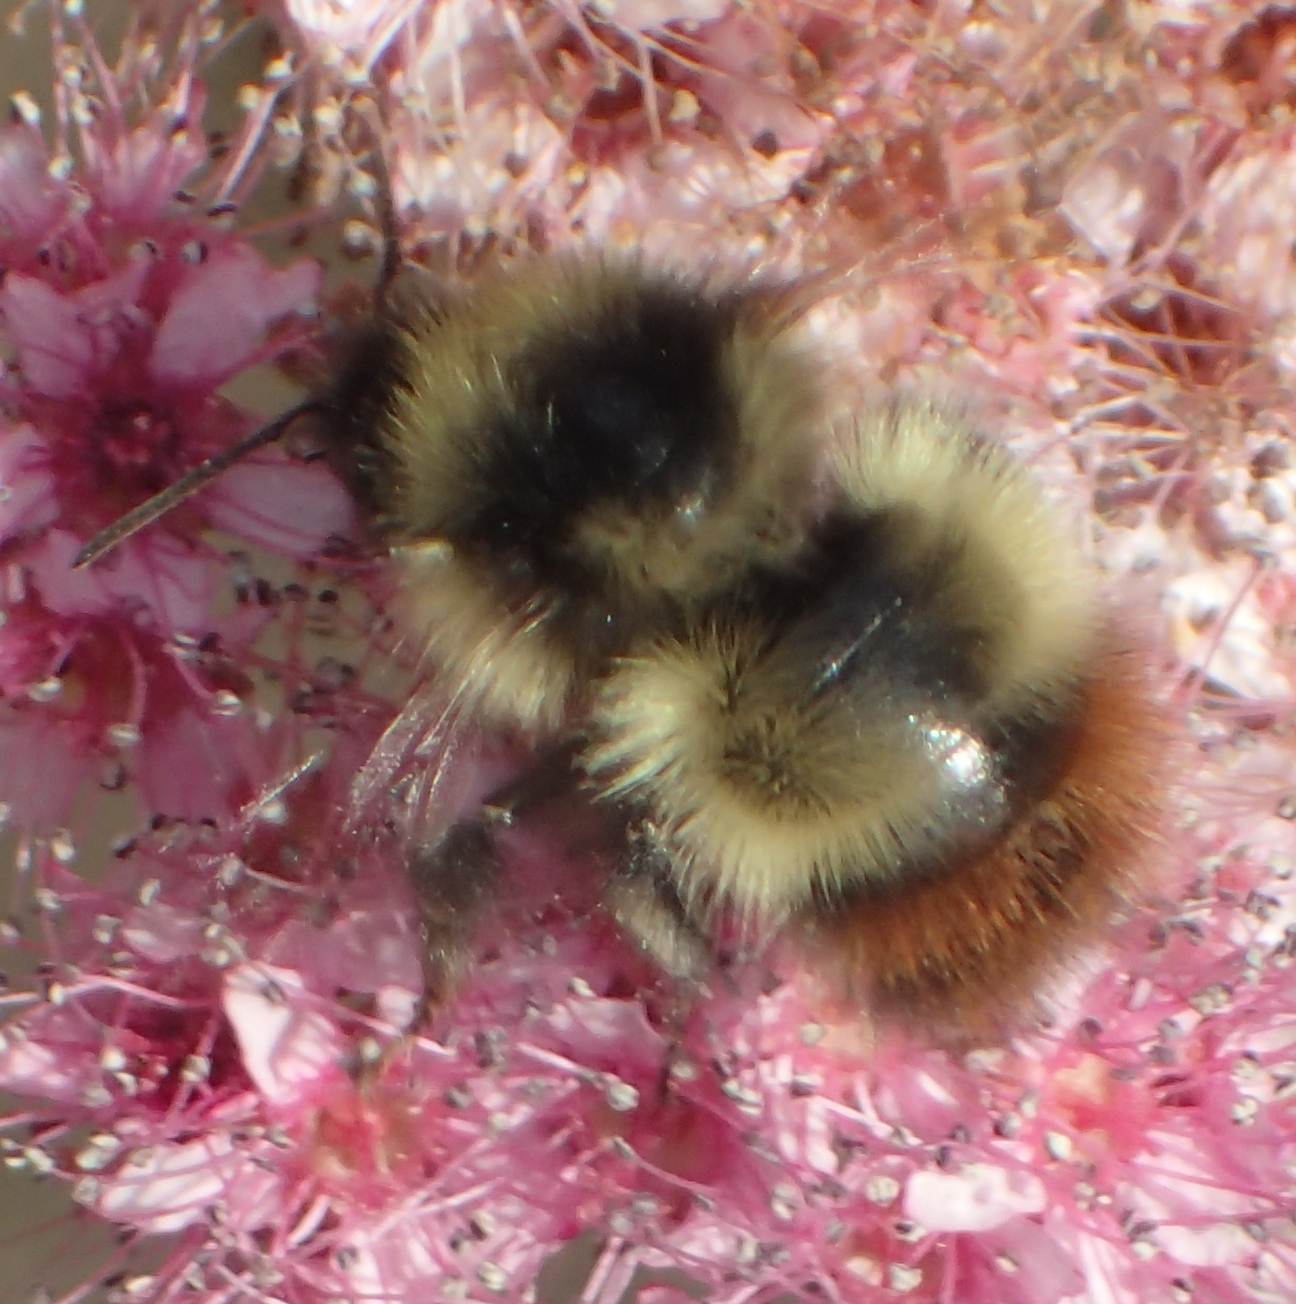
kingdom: Animalia
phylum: Arthropoda
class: Insecta
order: Hymenoptera
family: Apidae
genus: Bombus
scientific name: Bombus flavifrons
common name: Yellow head bumble bee
